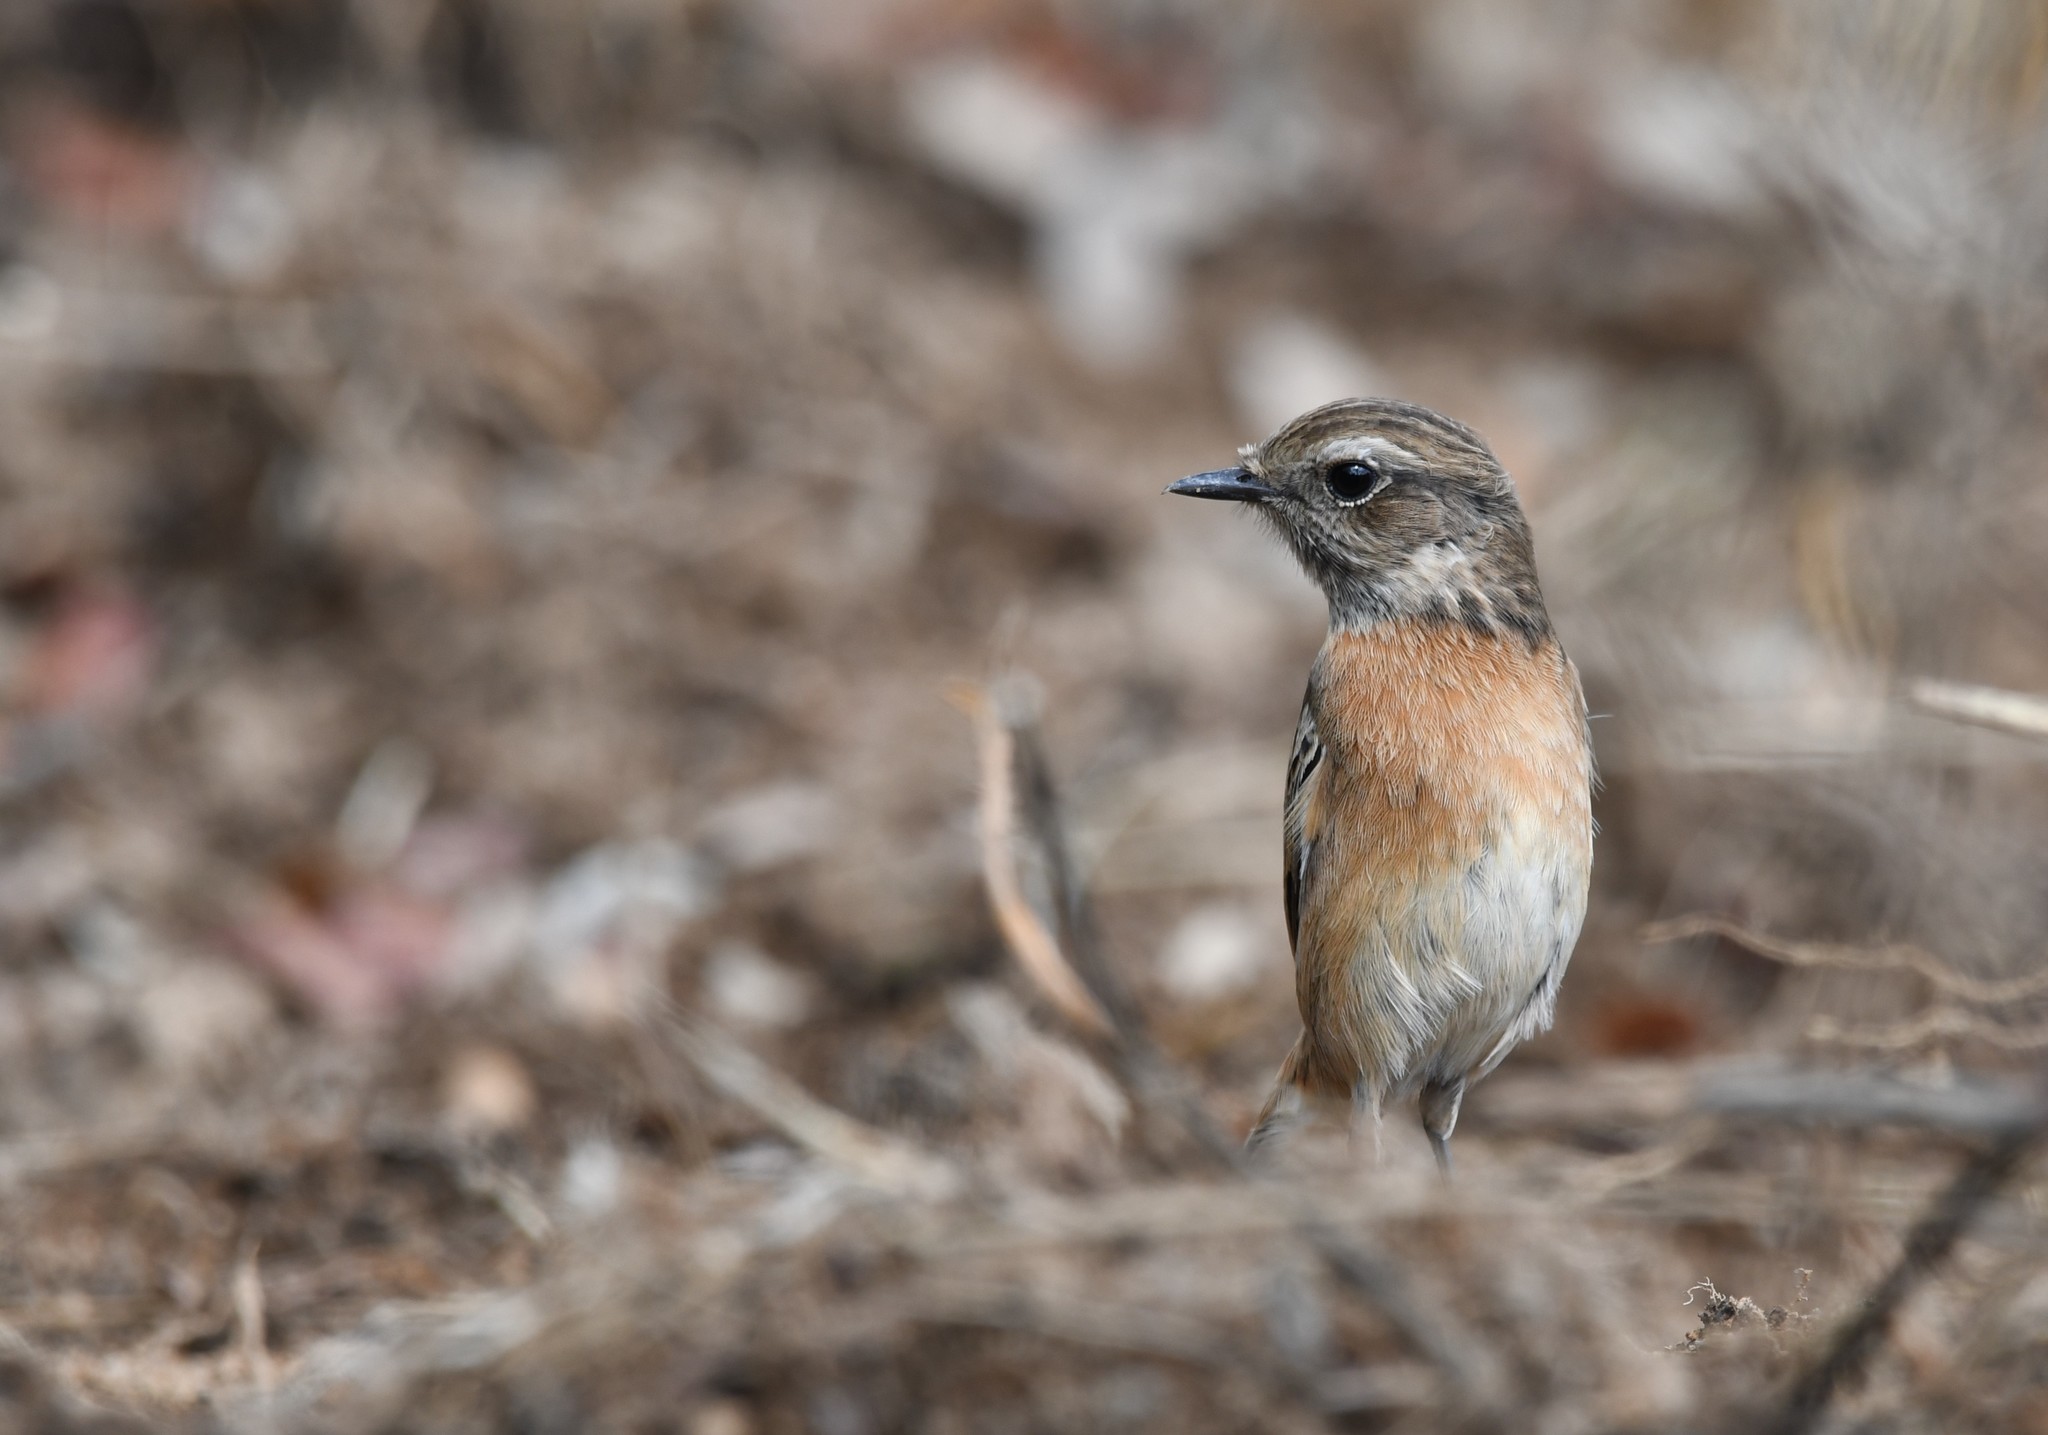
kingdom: Animalia
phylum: Chordata
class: Aves
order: Passeriformes
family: Muscicapidae
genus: Saxicola
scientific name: Saxicola rubicola
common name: European stonechat
